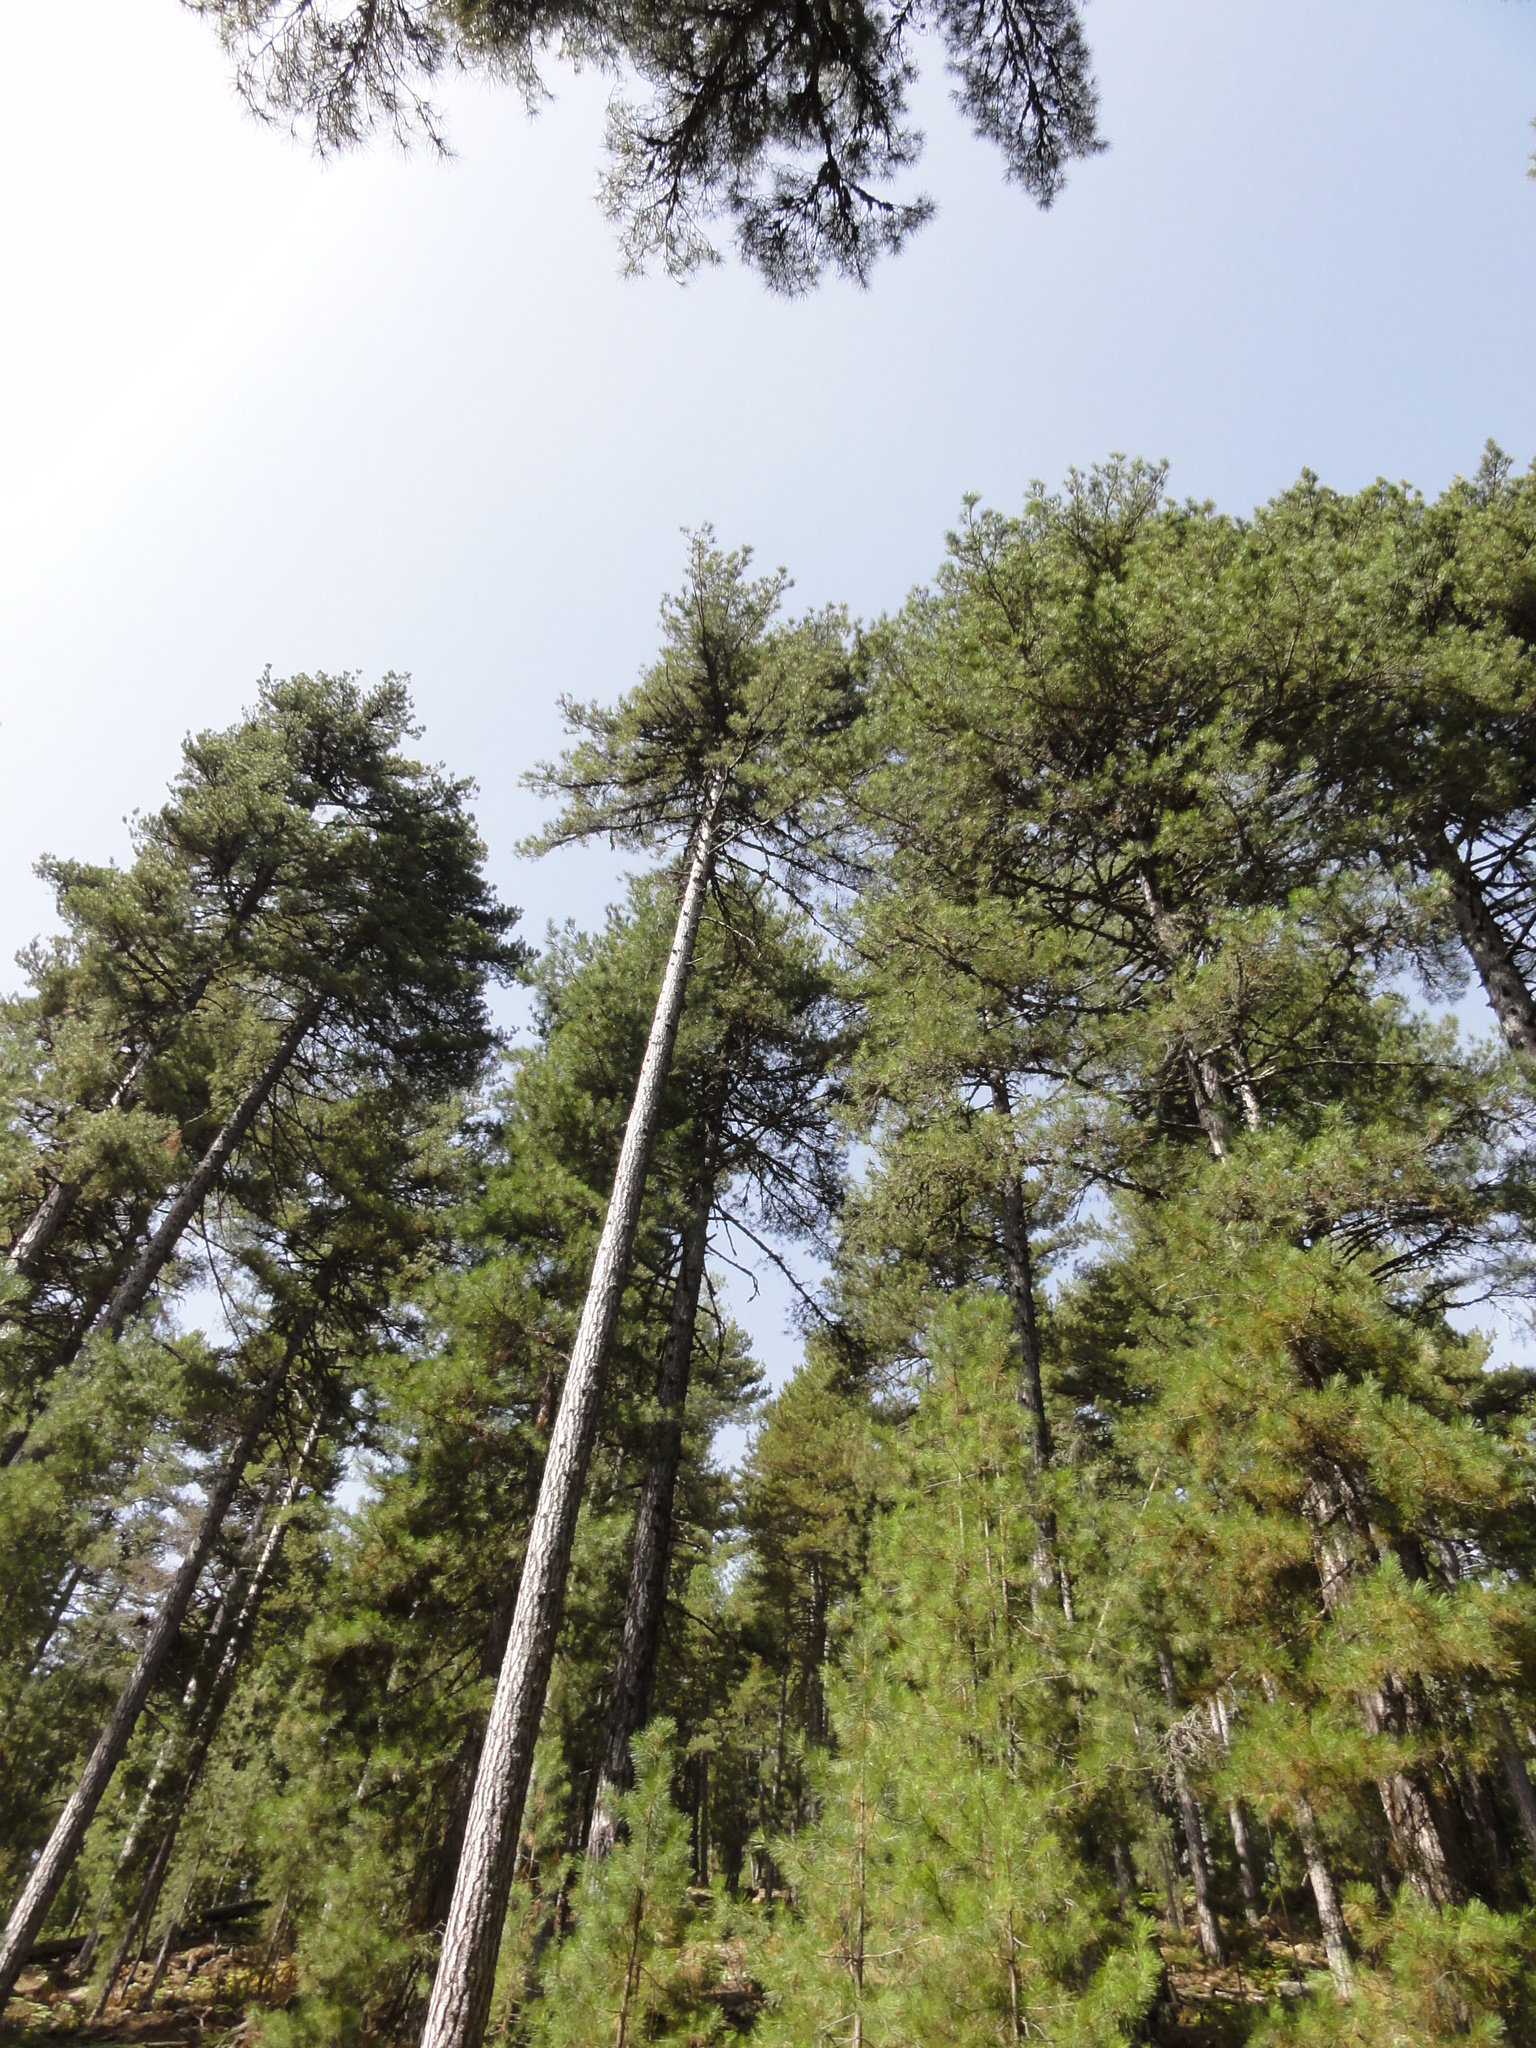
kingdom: Plantae
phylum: Tracheophyta
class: Pinopsida
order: Pinales
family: Pinaceae
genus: Pinus
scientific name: Pinus nigra
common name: Austrian pine
